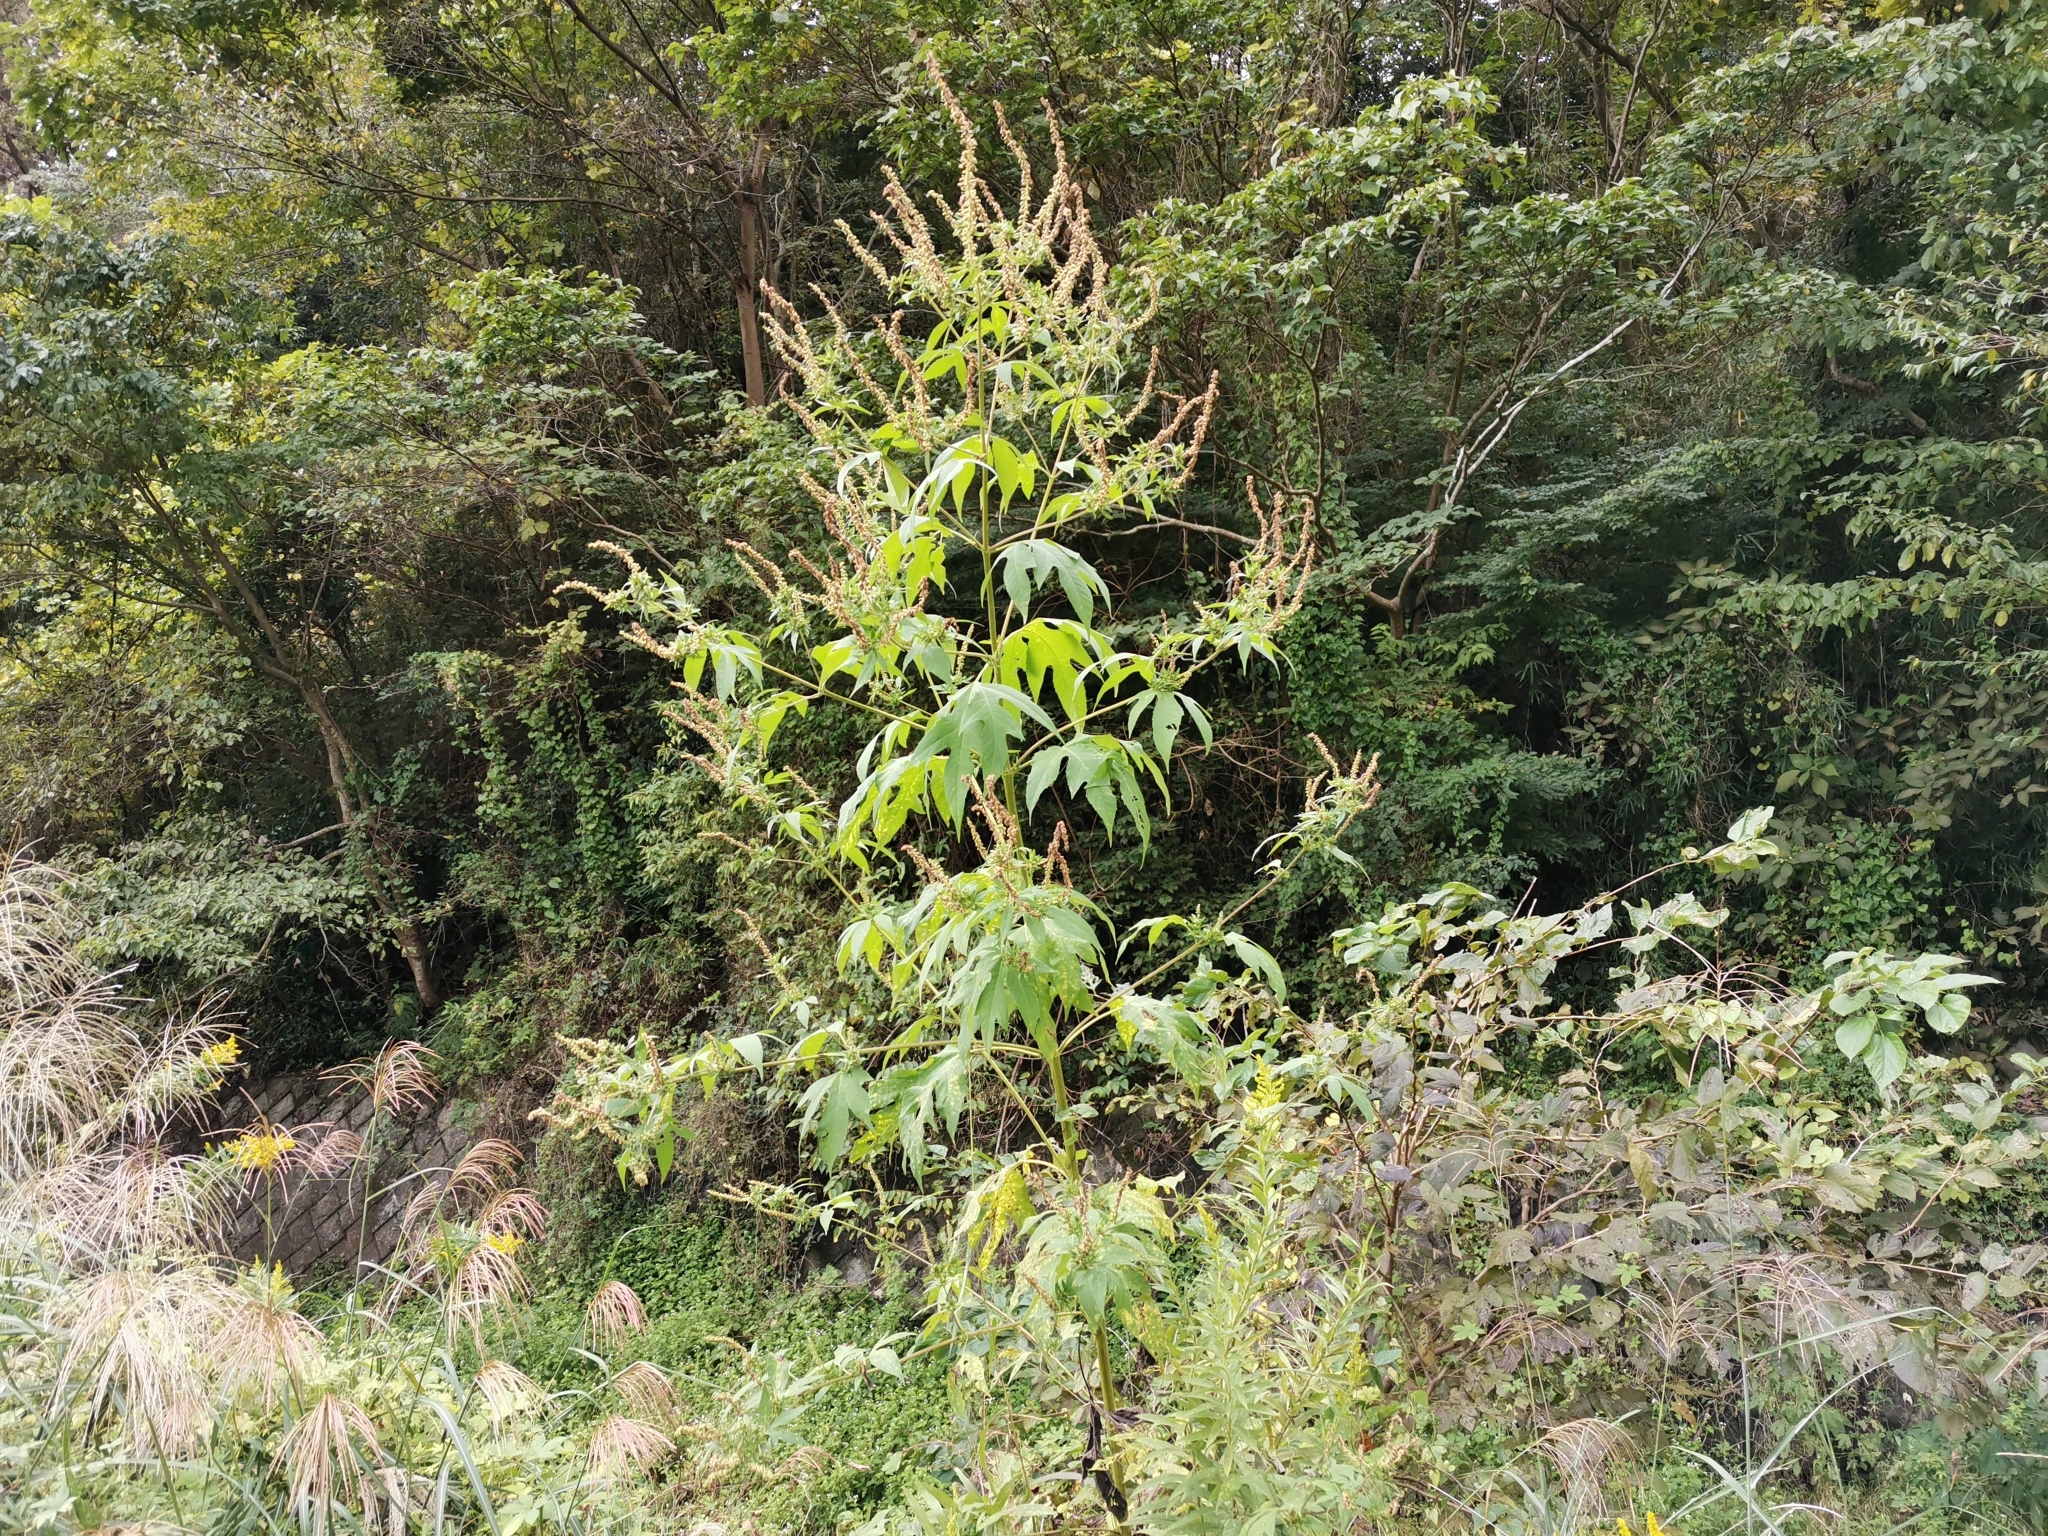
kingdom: Plantae
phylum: Tracheophyta
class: Magnoliopsida
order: Asterales
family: Asteraceae
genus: Ambrosia
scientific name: Ambrosia trifida
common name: Giant ragweed
